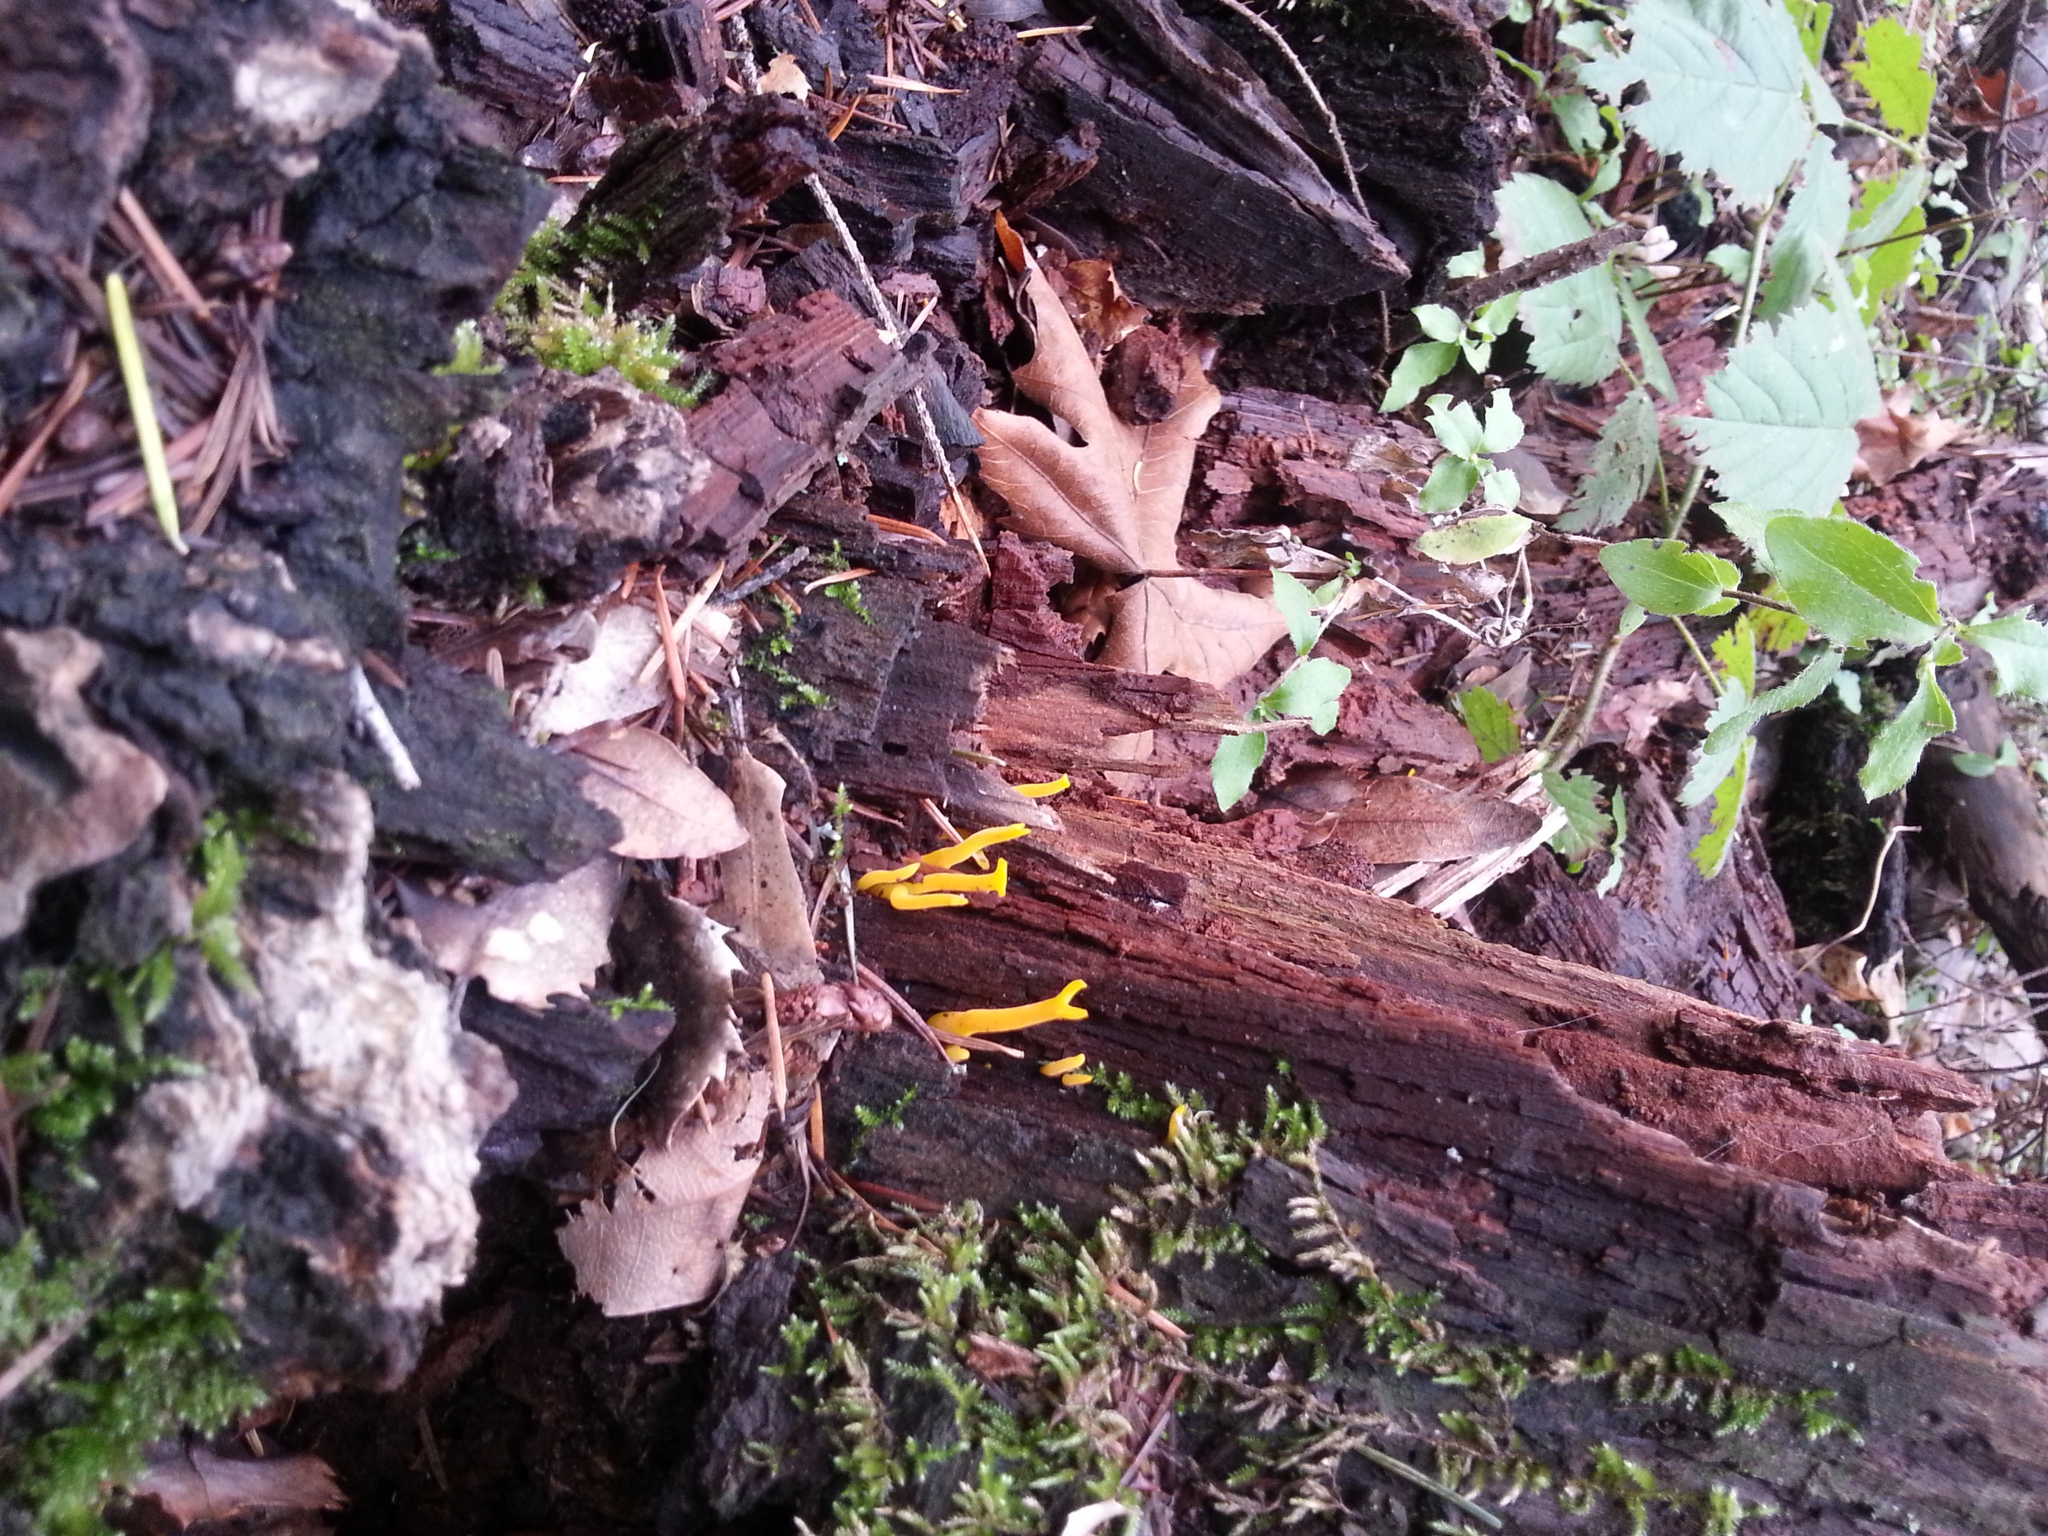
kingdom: Fungi
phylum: Basidiomycota
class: Dacrymycetes
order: Dacrymycetales
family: Dacrymycetaceae
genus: Calocera
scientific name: Calocera viscosa
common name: Yellow stagshorn
